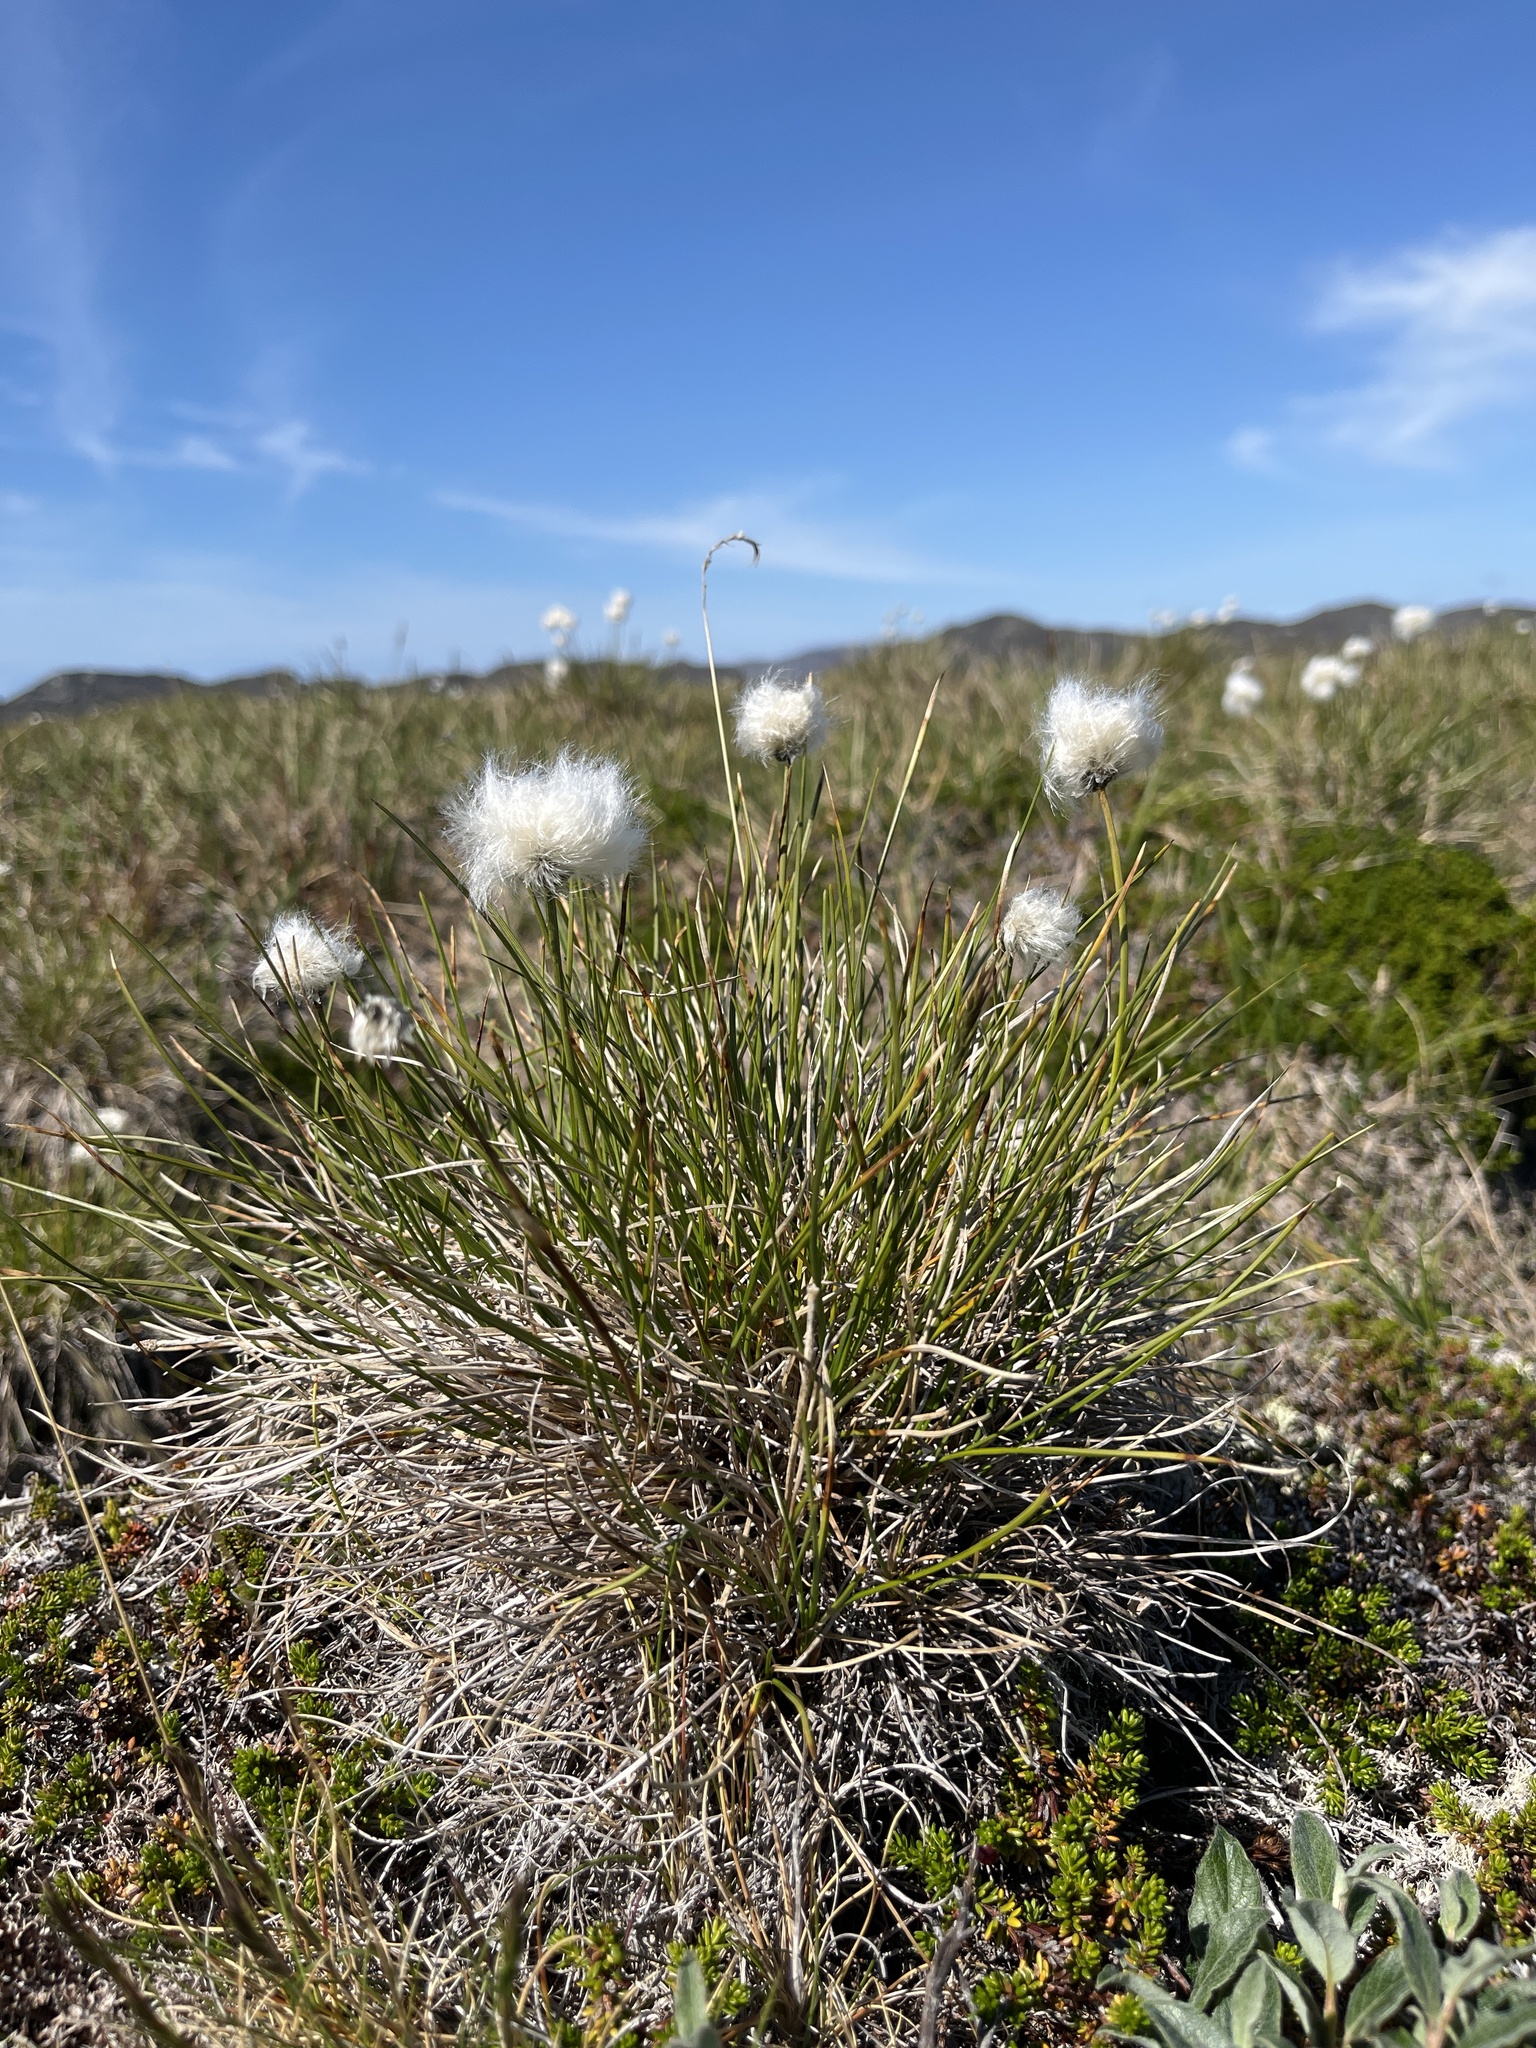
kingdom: Plantae
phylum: Tracheophyta
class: Liliopsida
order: Poales
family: Cyperaceae
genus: Eriophorum
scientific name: Eriophorum vaginatum
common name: Hare's-tail cottongrass
